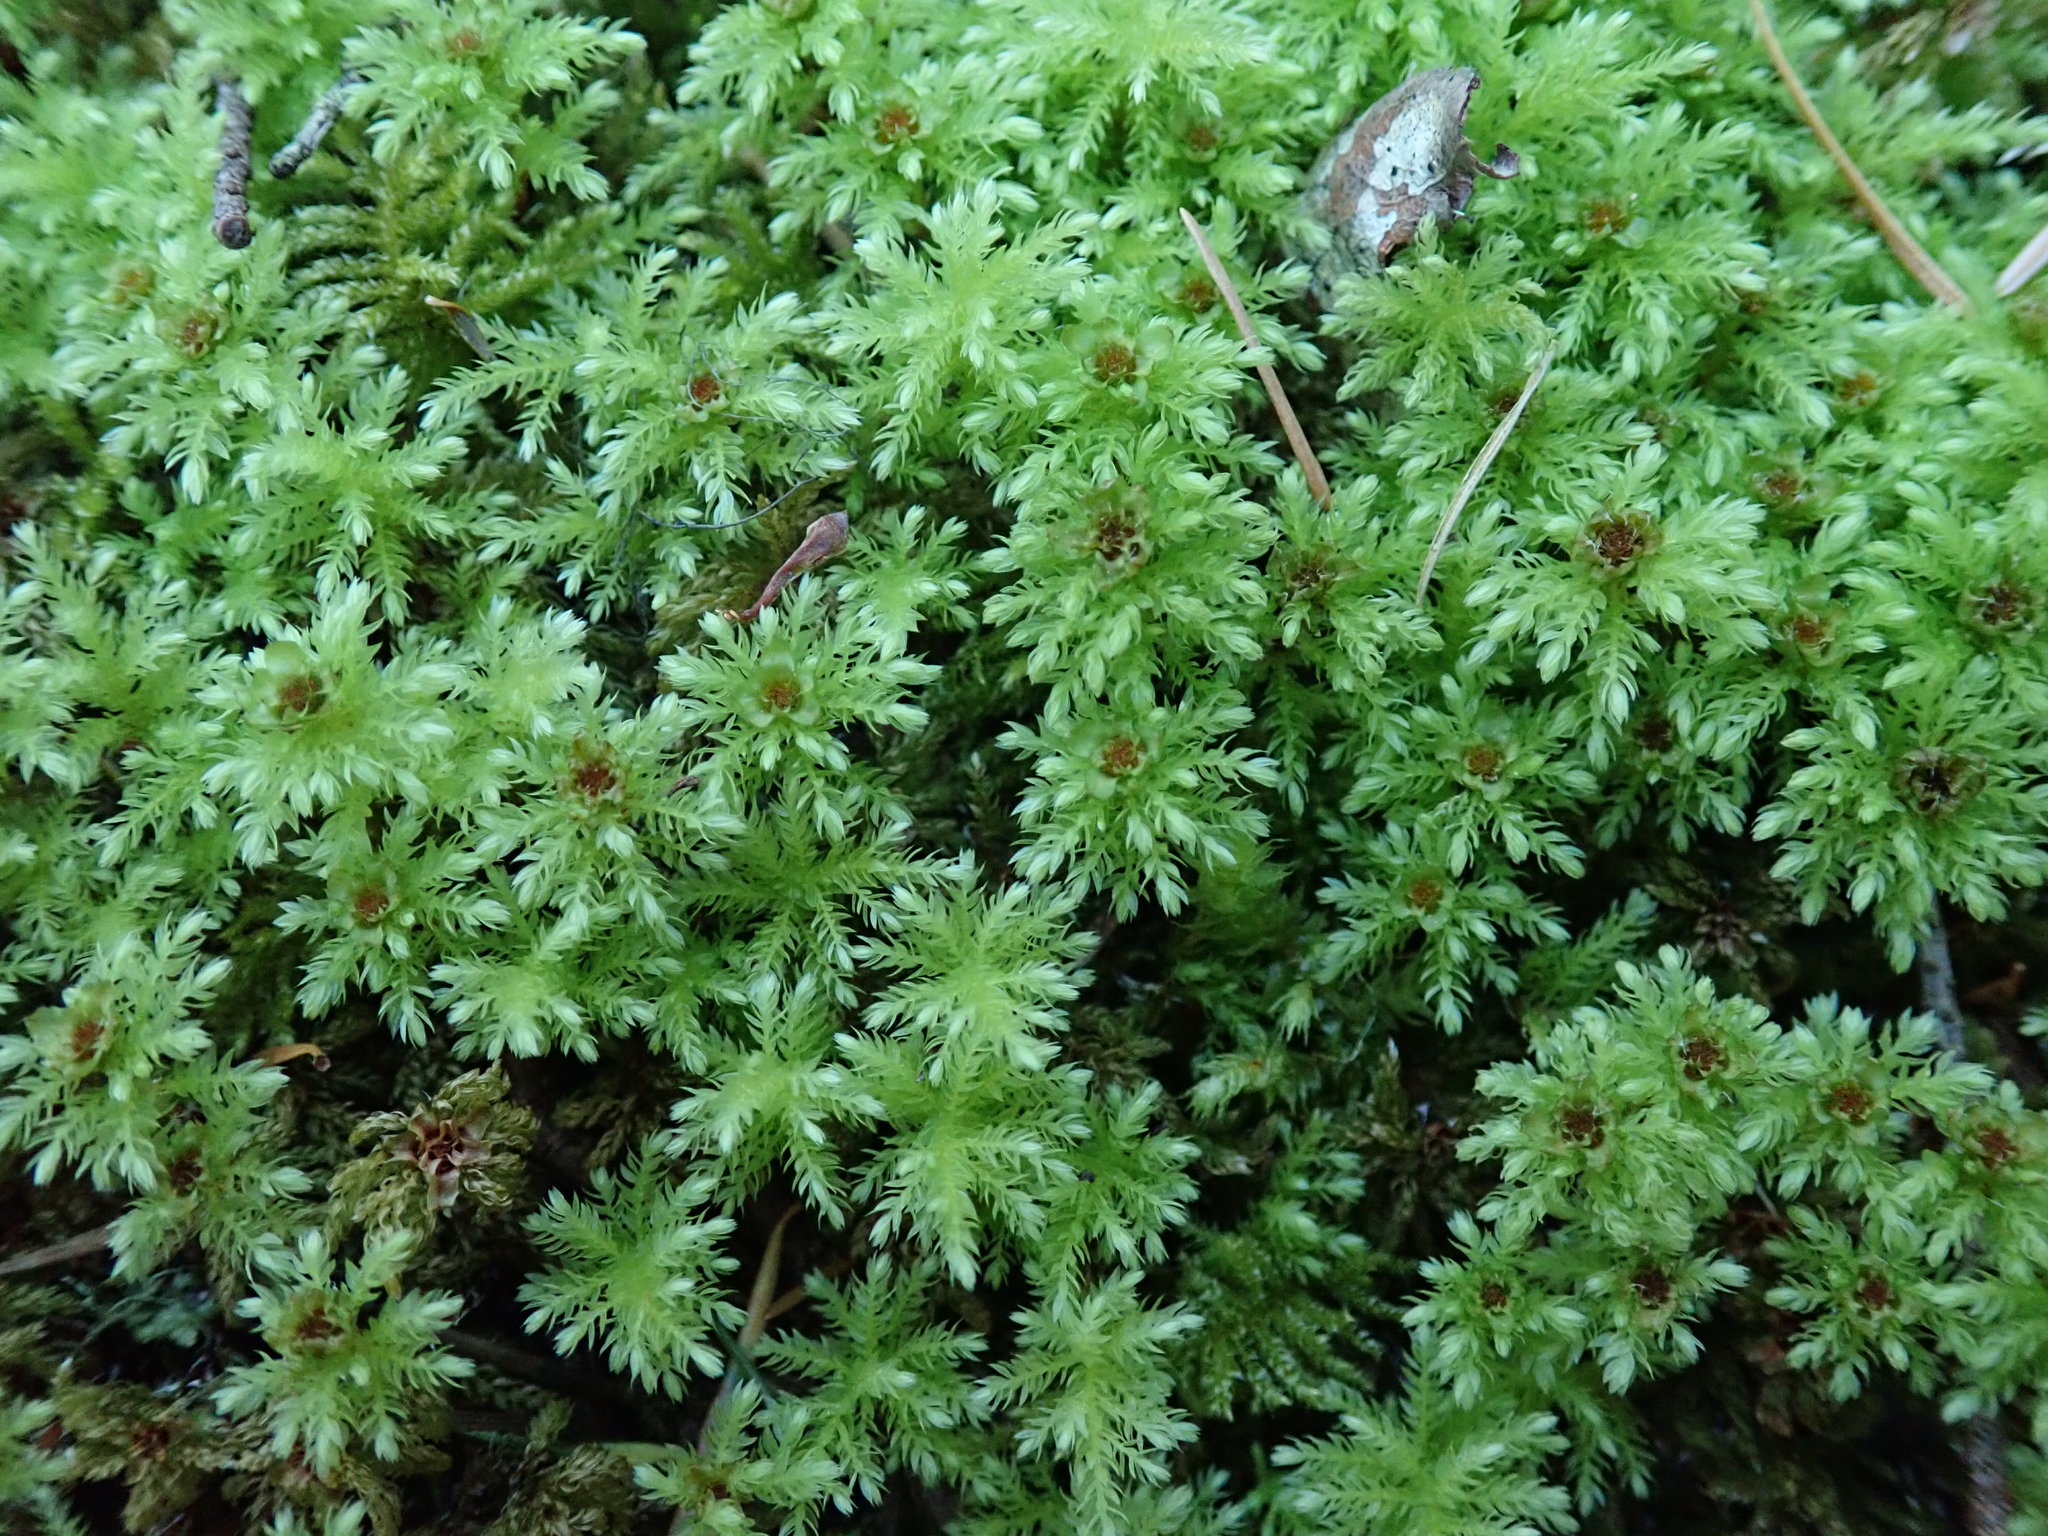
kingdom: Plantae
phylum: Bryophyta
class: Bryopsida
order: Bryales
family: Mniaceae
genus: Leucolepis
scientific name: Leucolepis acanthoneura
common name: Leucolepis umbrella moss
